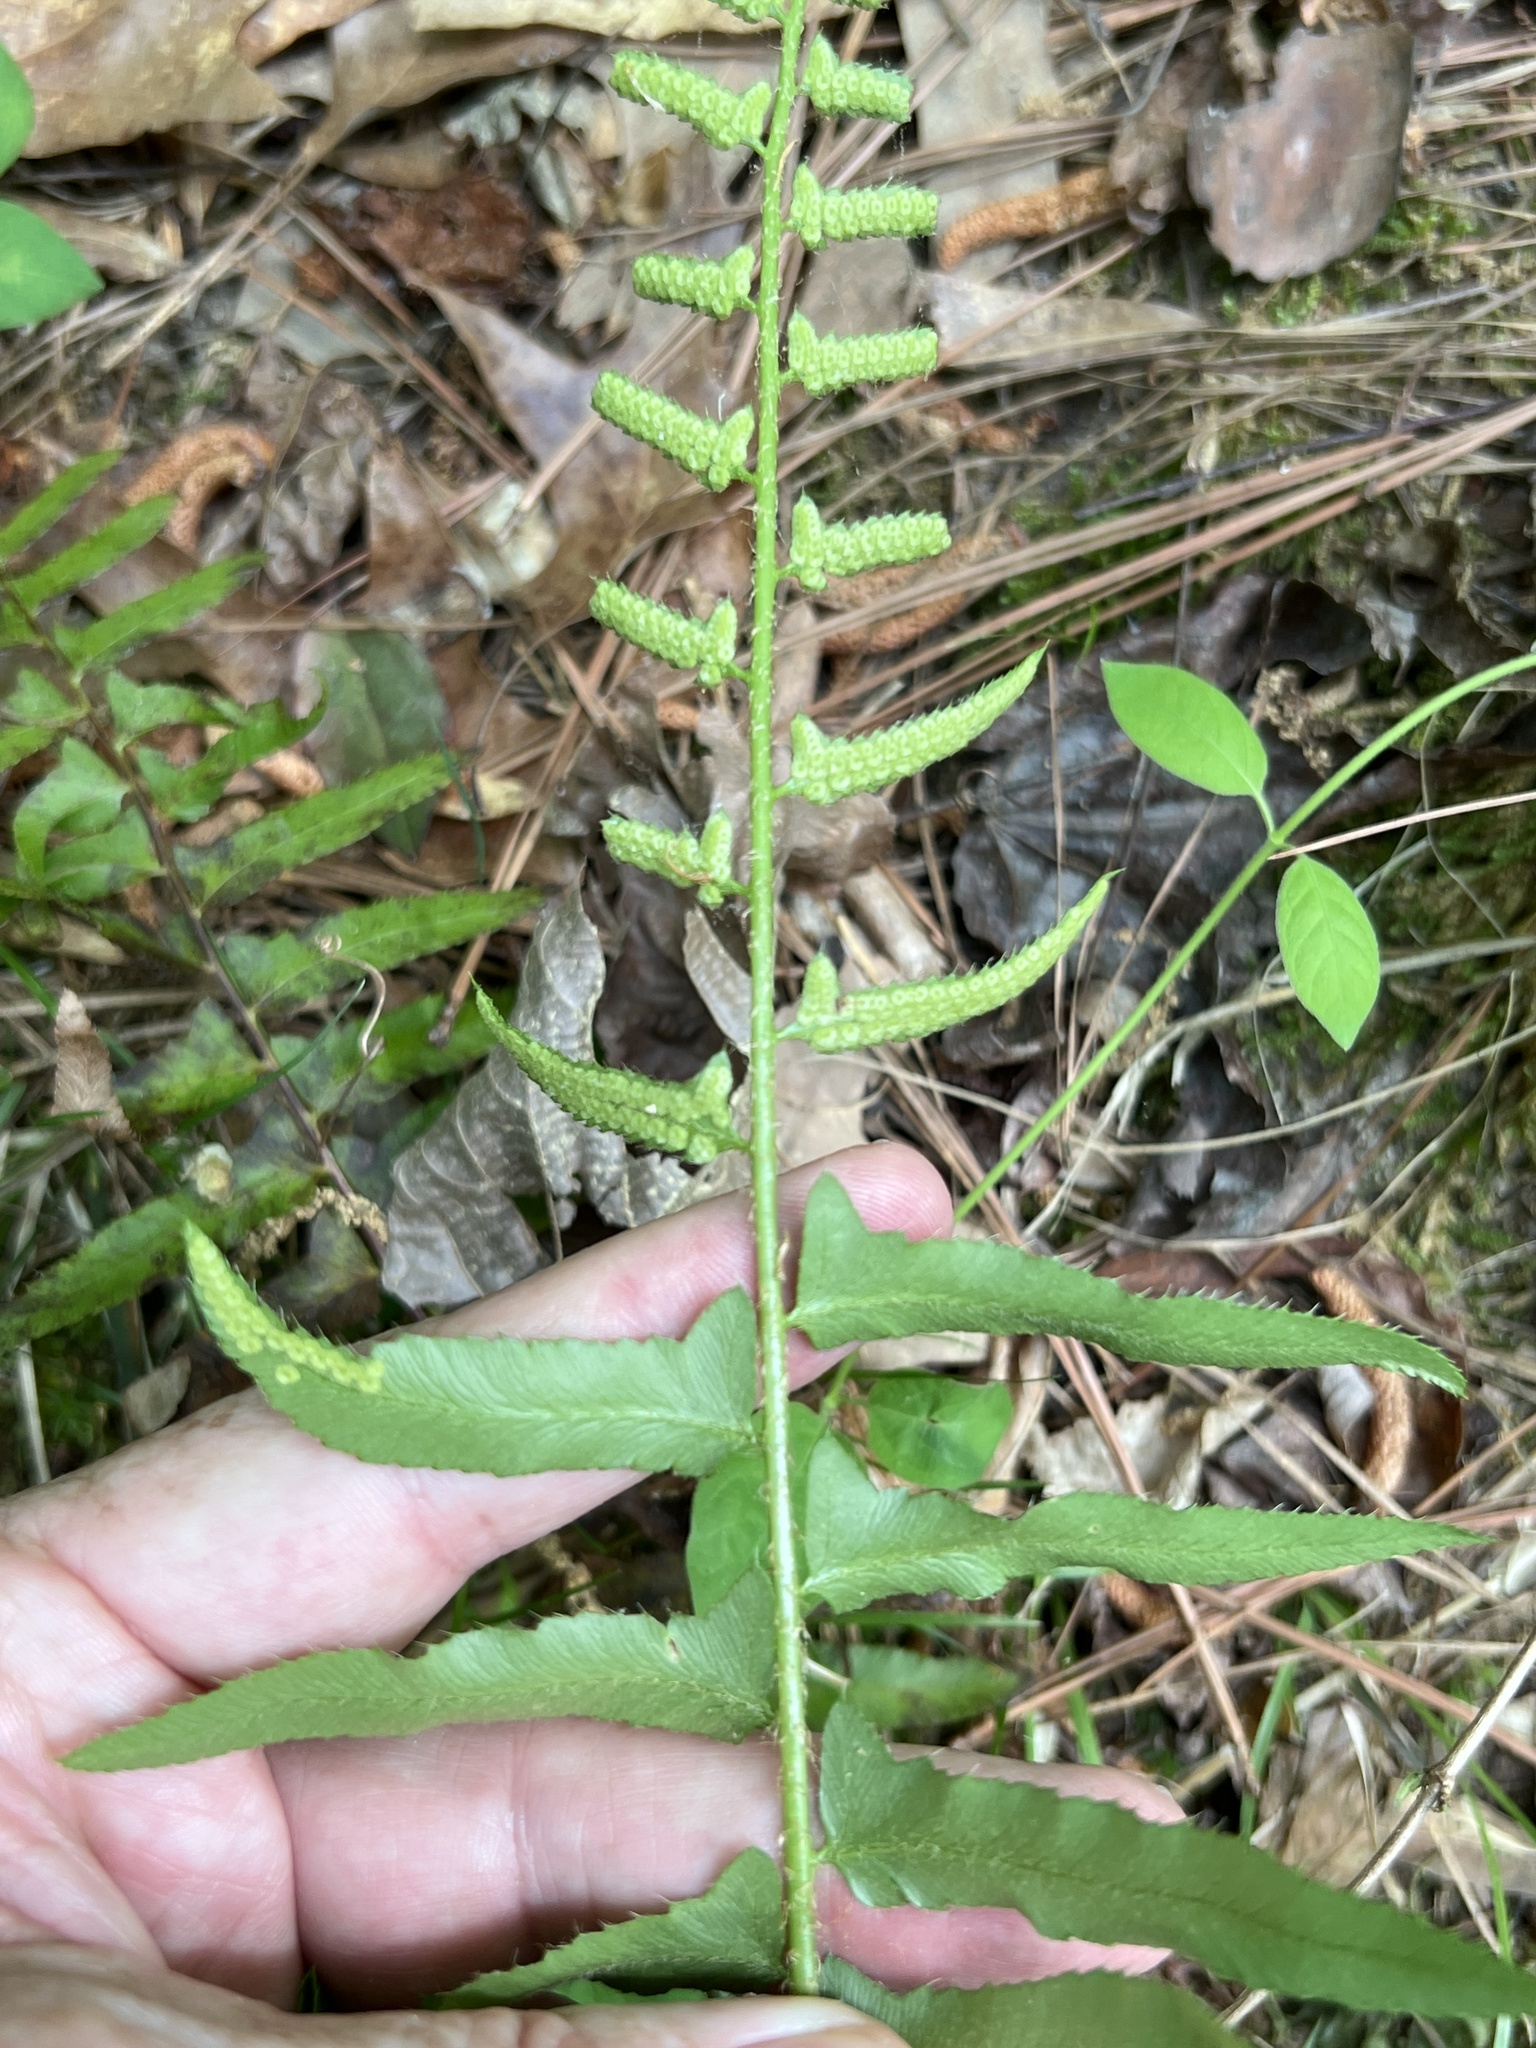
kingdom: Plantae
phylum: Tracheophyta
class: Polypodiopsida
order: Polypodiales
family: Dryopteridaceae
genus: Polystichum
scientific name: Polystichum acrostichoides
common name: Christmas fern
